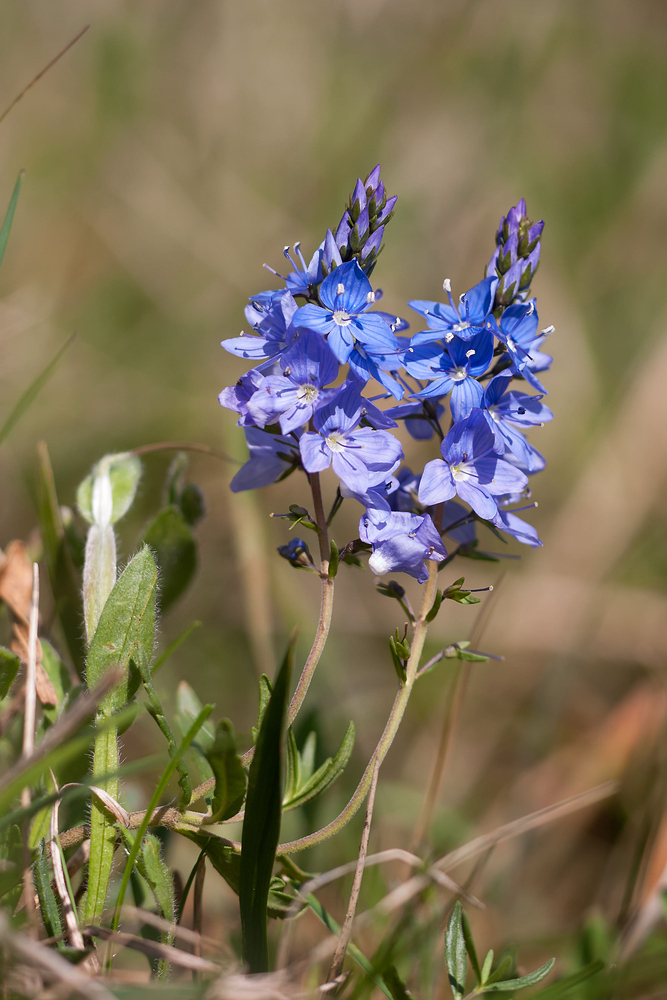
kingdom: Plantae
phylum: Tracheophyta
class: Magnoliopsida
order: Lamiales
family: Plantaginaceae
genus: Veronica
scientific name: Veronica satureiifolia
